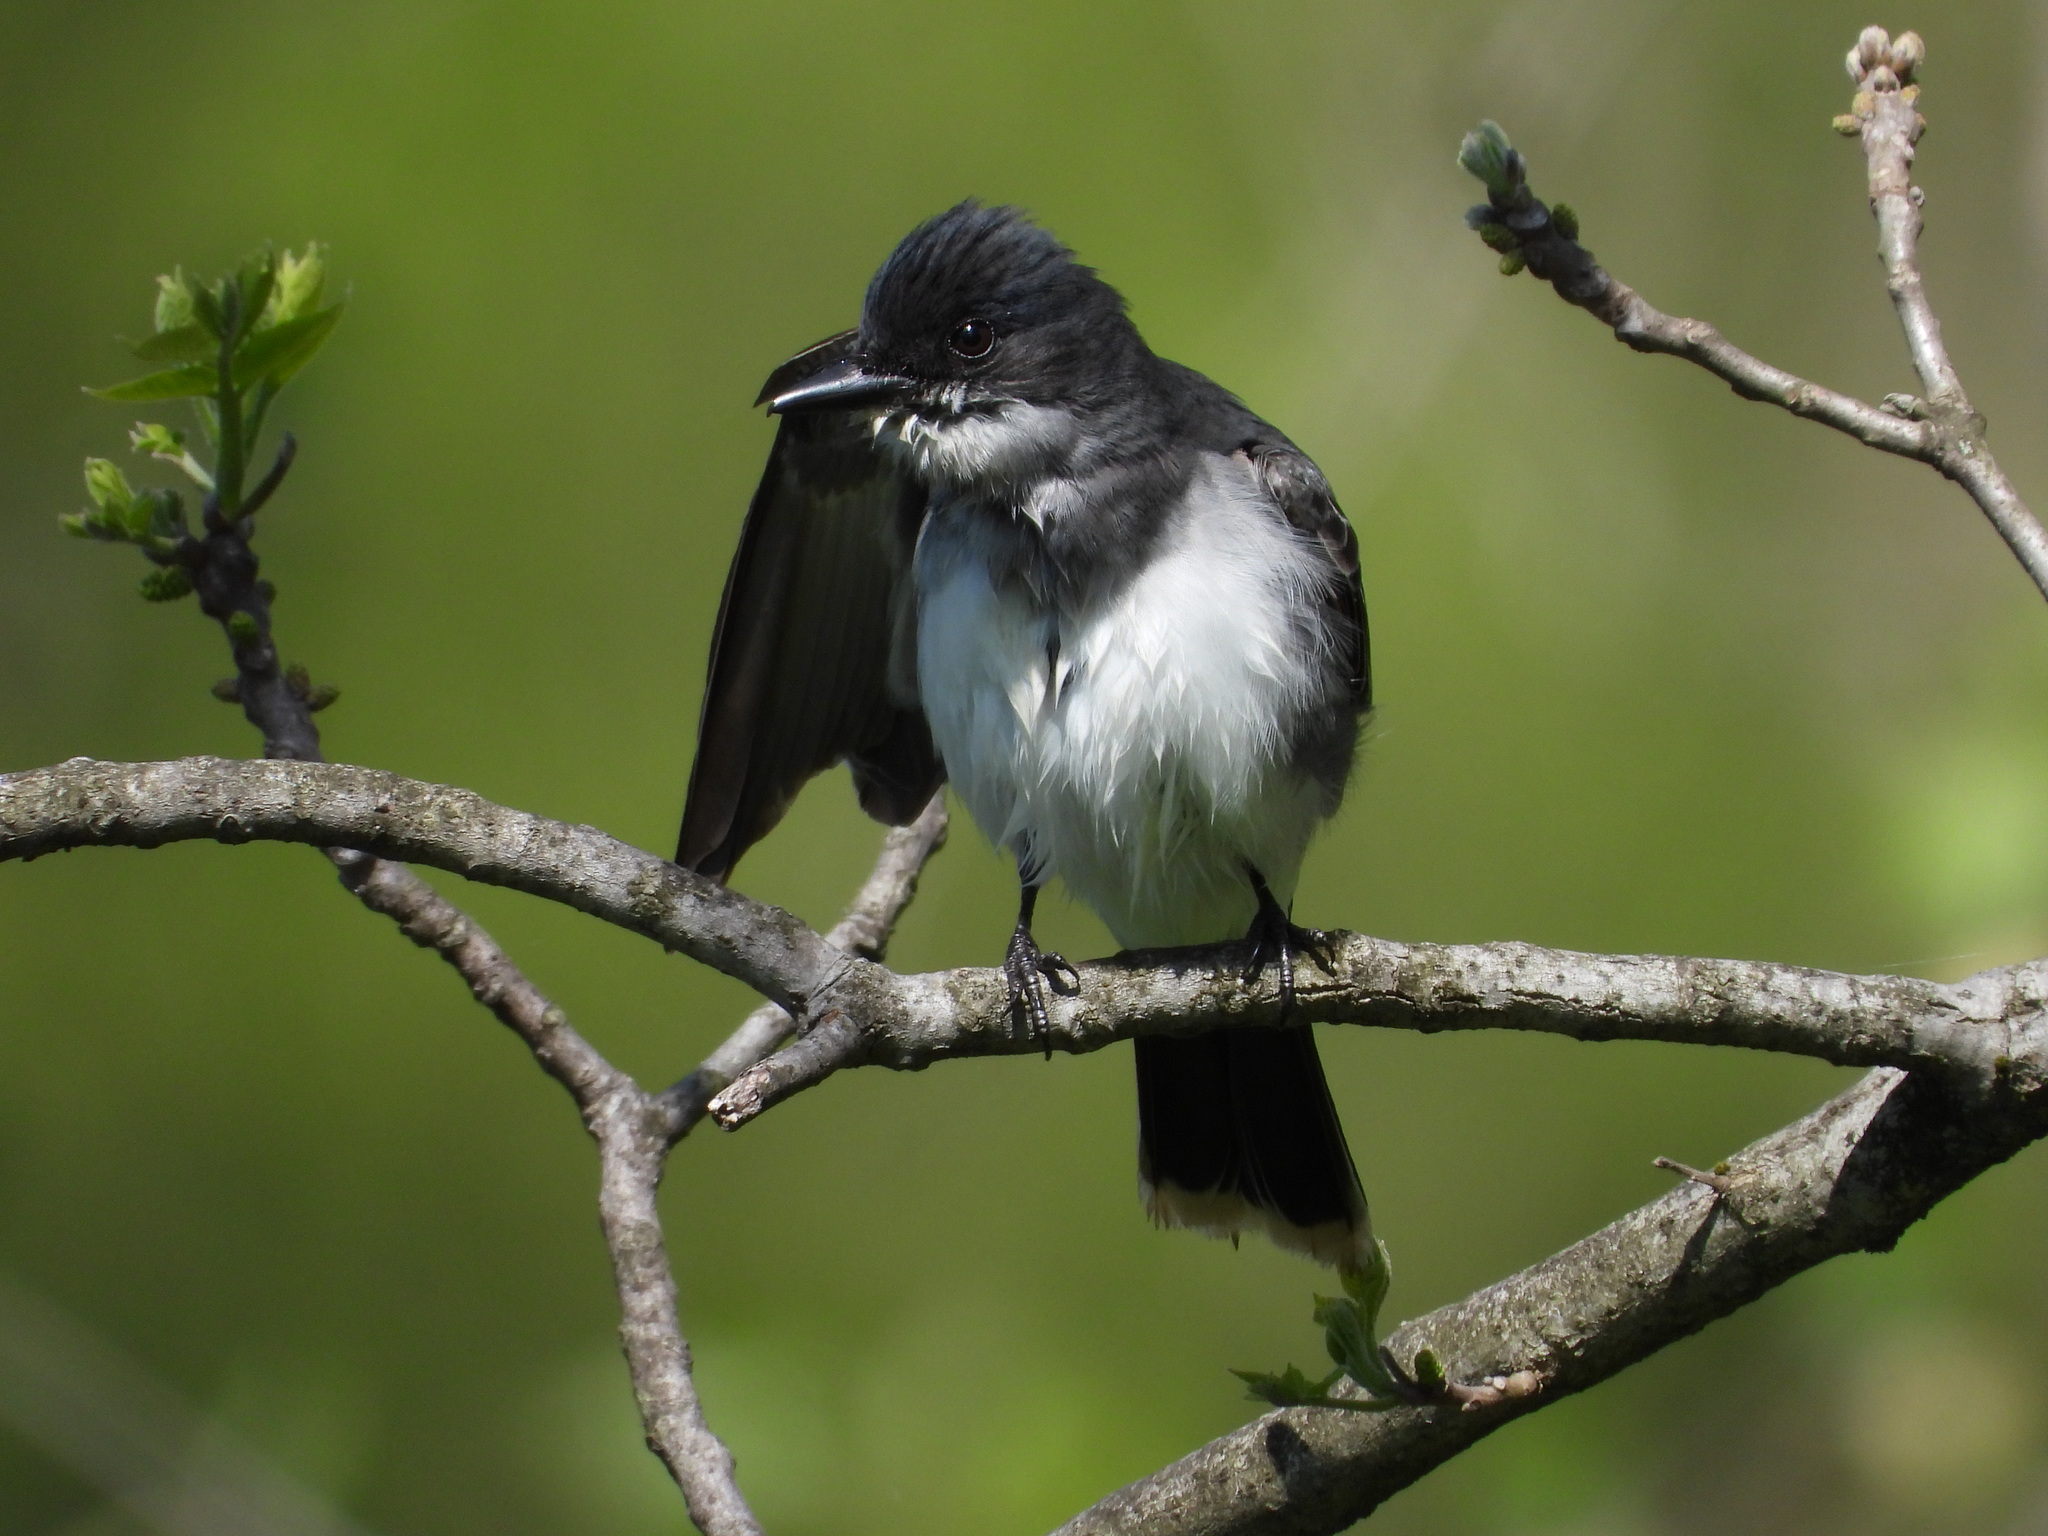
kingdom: Animalia
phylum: Chordata
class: Aves
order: Passeriformes
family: Tyrannidae
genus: Tyrannus
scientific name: Tyrannus tyrannus
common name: Eastern kingbird
